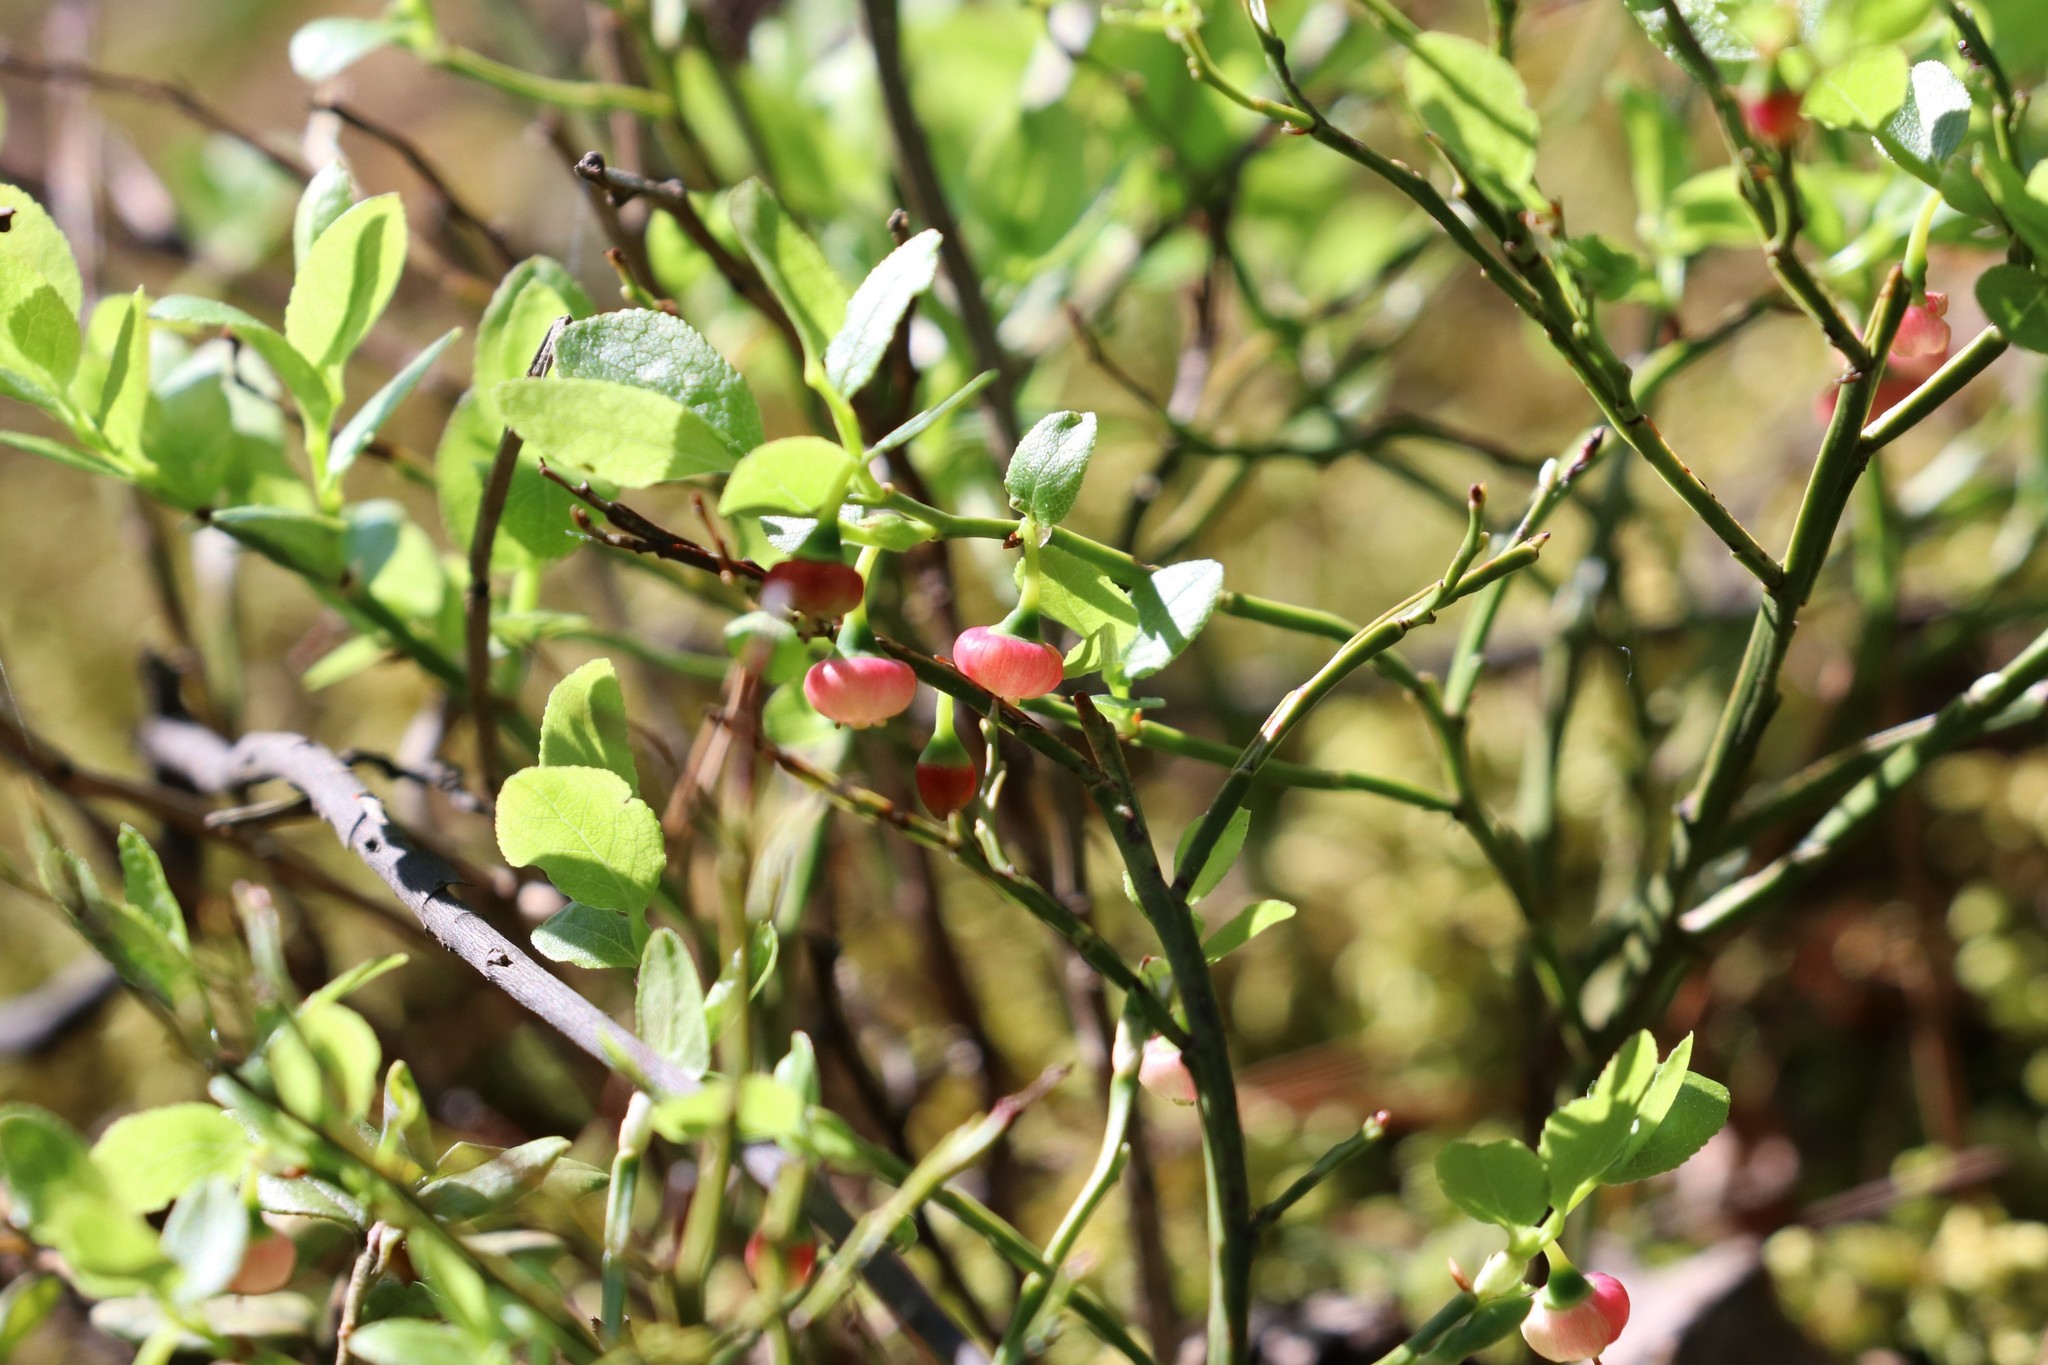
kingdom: Plantae
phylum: Tracheophyta
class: Magnoliopsida
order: Ericales
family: Ericaceae
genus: Vaccinium
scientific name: Vaccinium myrtillus
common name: Bilberry
